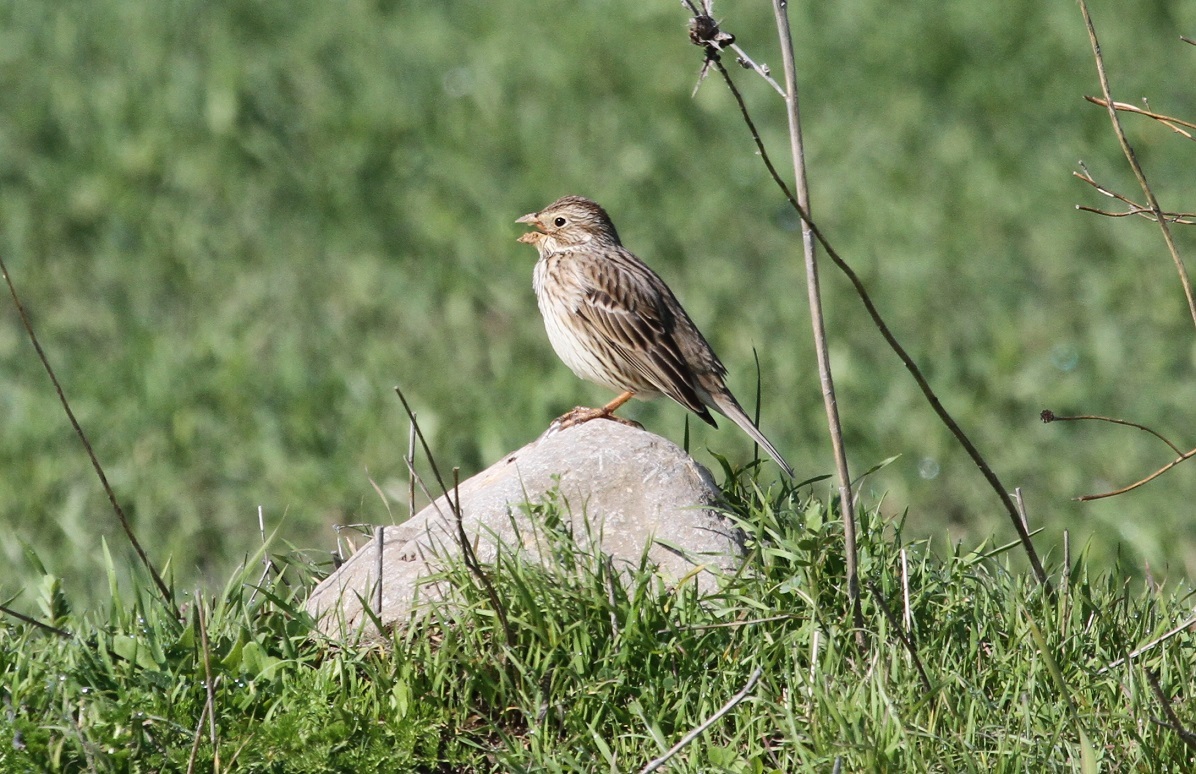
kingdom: Animalia
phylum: Chordata
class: Aves
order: Passeriformes
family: Emberizidae
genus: Emberiza
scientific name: Emberiza calandra
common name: Corn bunting
